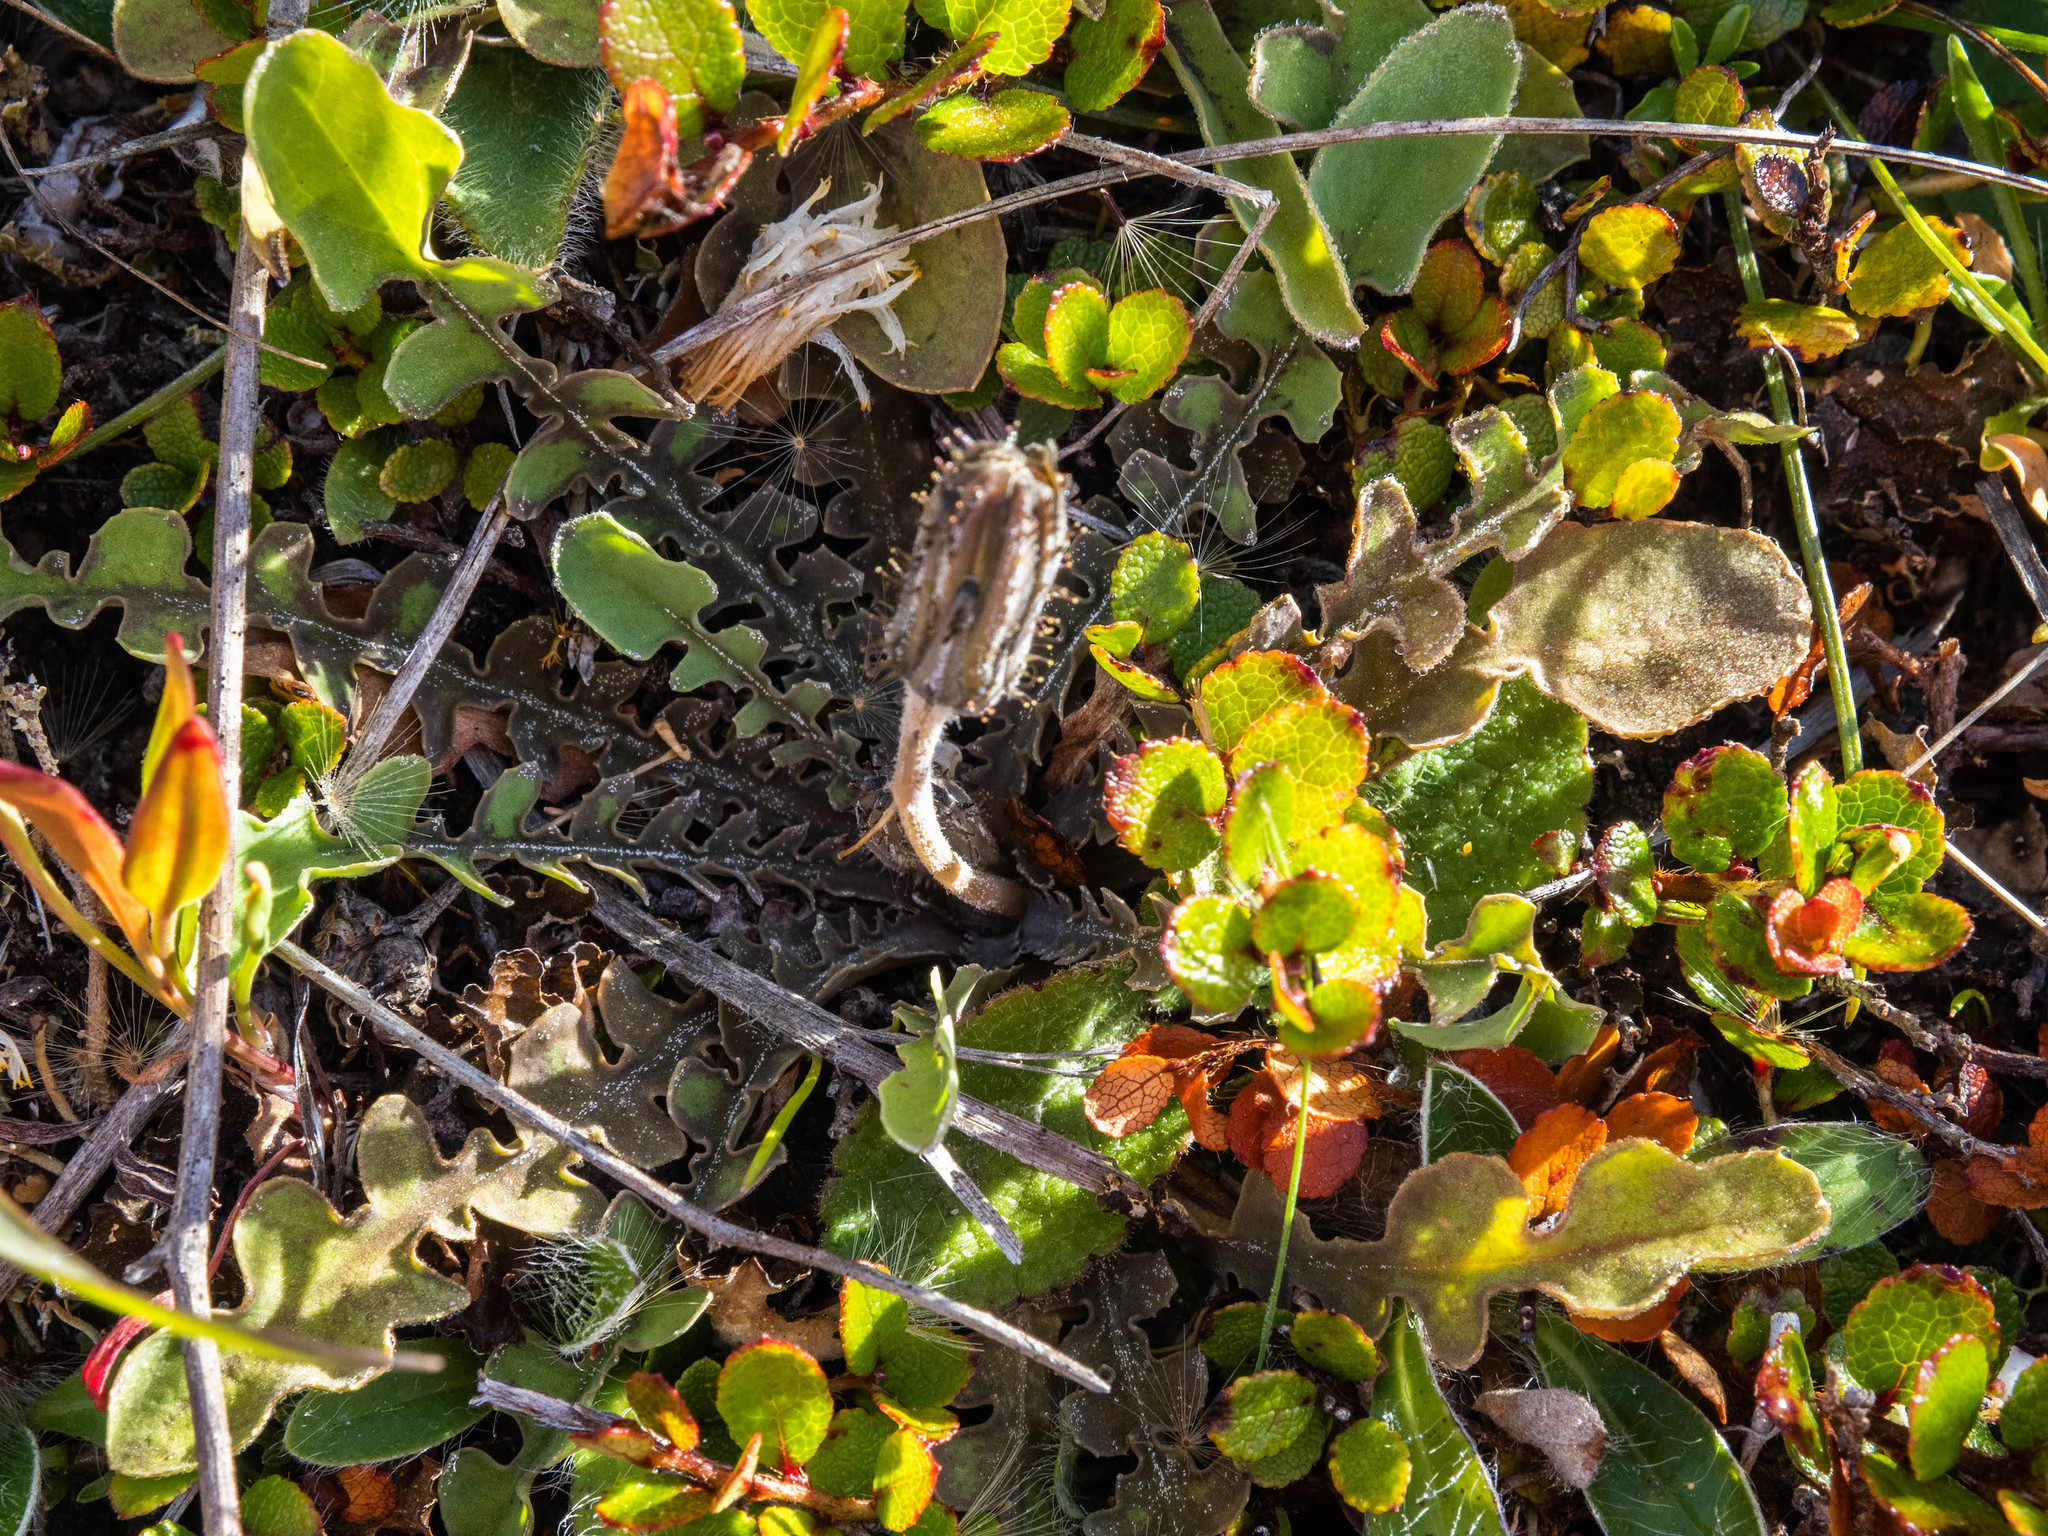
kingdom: Plantae
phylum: Tracheophyta
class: Magnoliopsida
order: Asterales
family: Asteraceae
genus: Sonchus
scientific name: Sonchus novae-zelandiae
